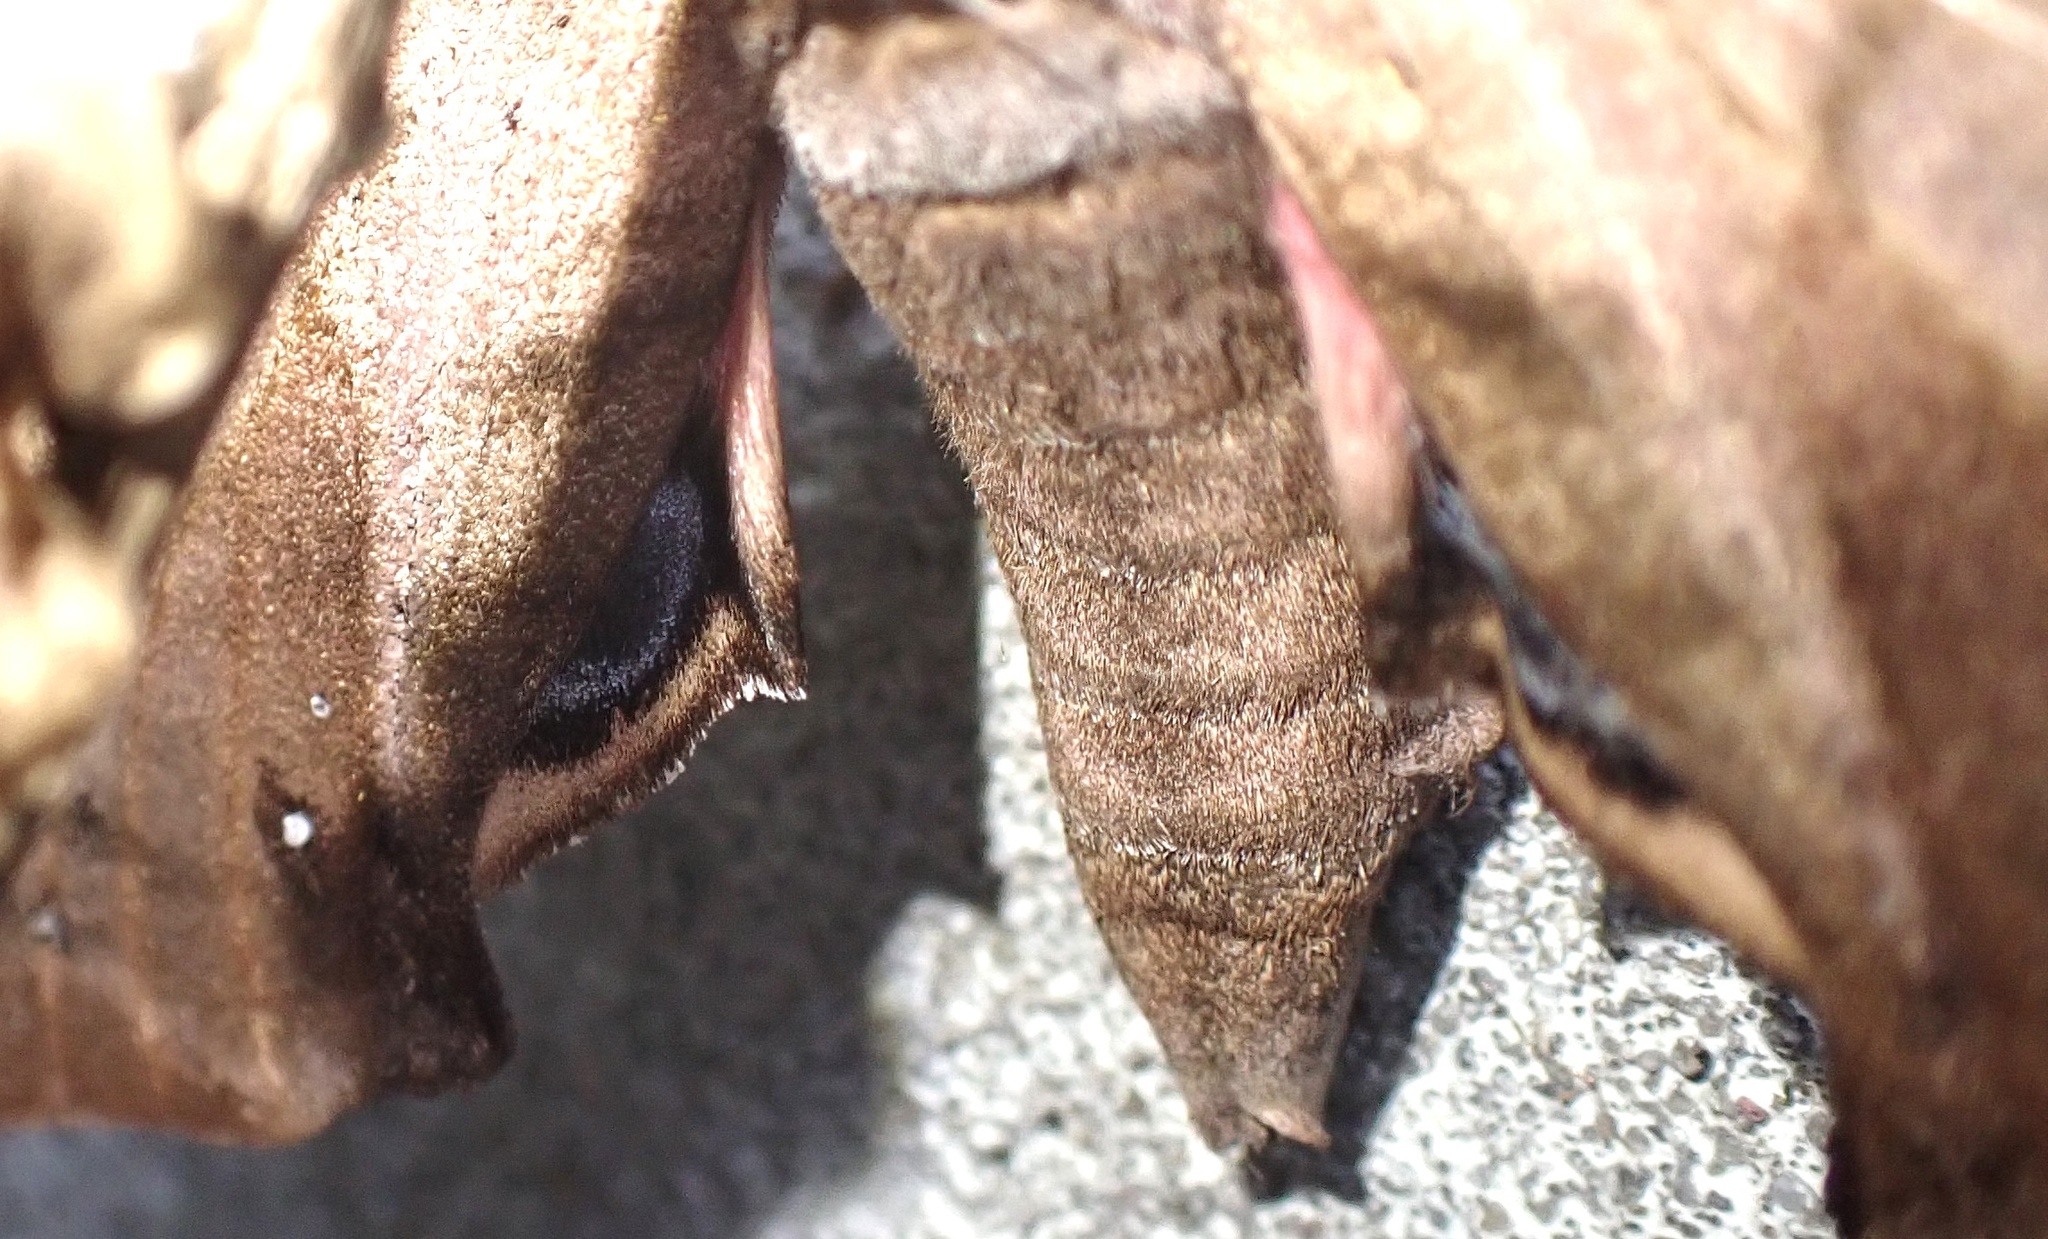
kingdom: Animalia
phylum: Arthropoda
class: Insecta
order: Lepidoptera
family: Sphingidae
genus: Smerinthus
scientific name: Smerinthus ocellata
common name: Eyed hawk-moth
